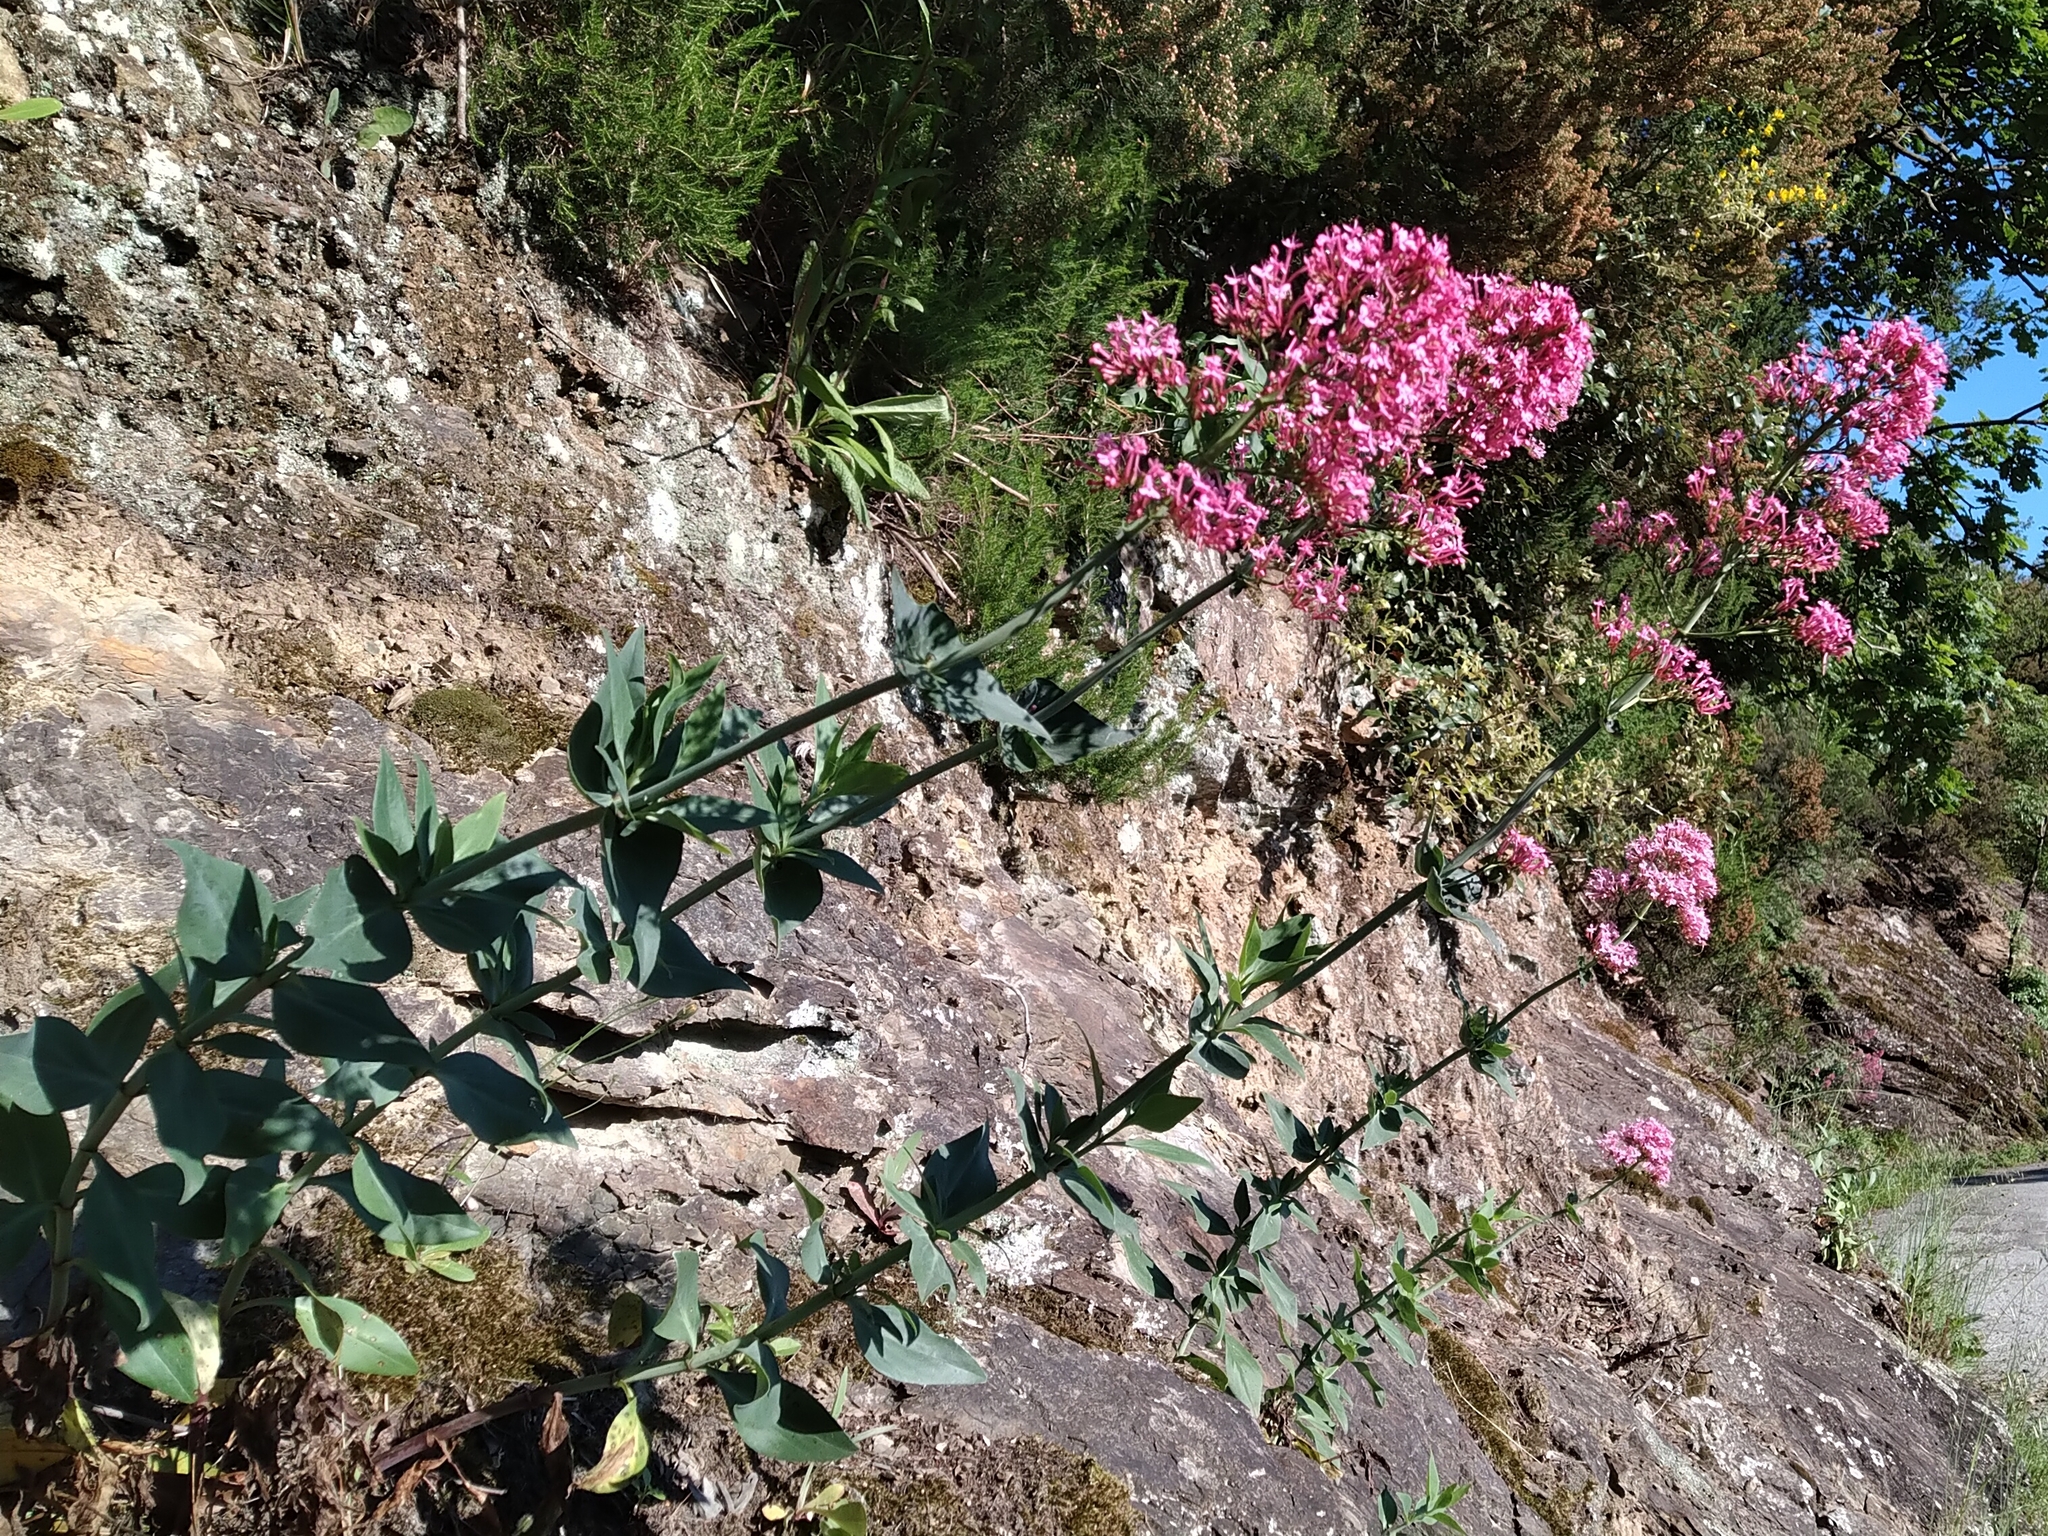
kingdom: Plantae
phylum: Tracheophyta
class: Magnoliopsida
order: Dipsacales
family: Caprifoliaceae
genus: Centranthus
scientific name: Centranthus ruber
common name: Red valerian
